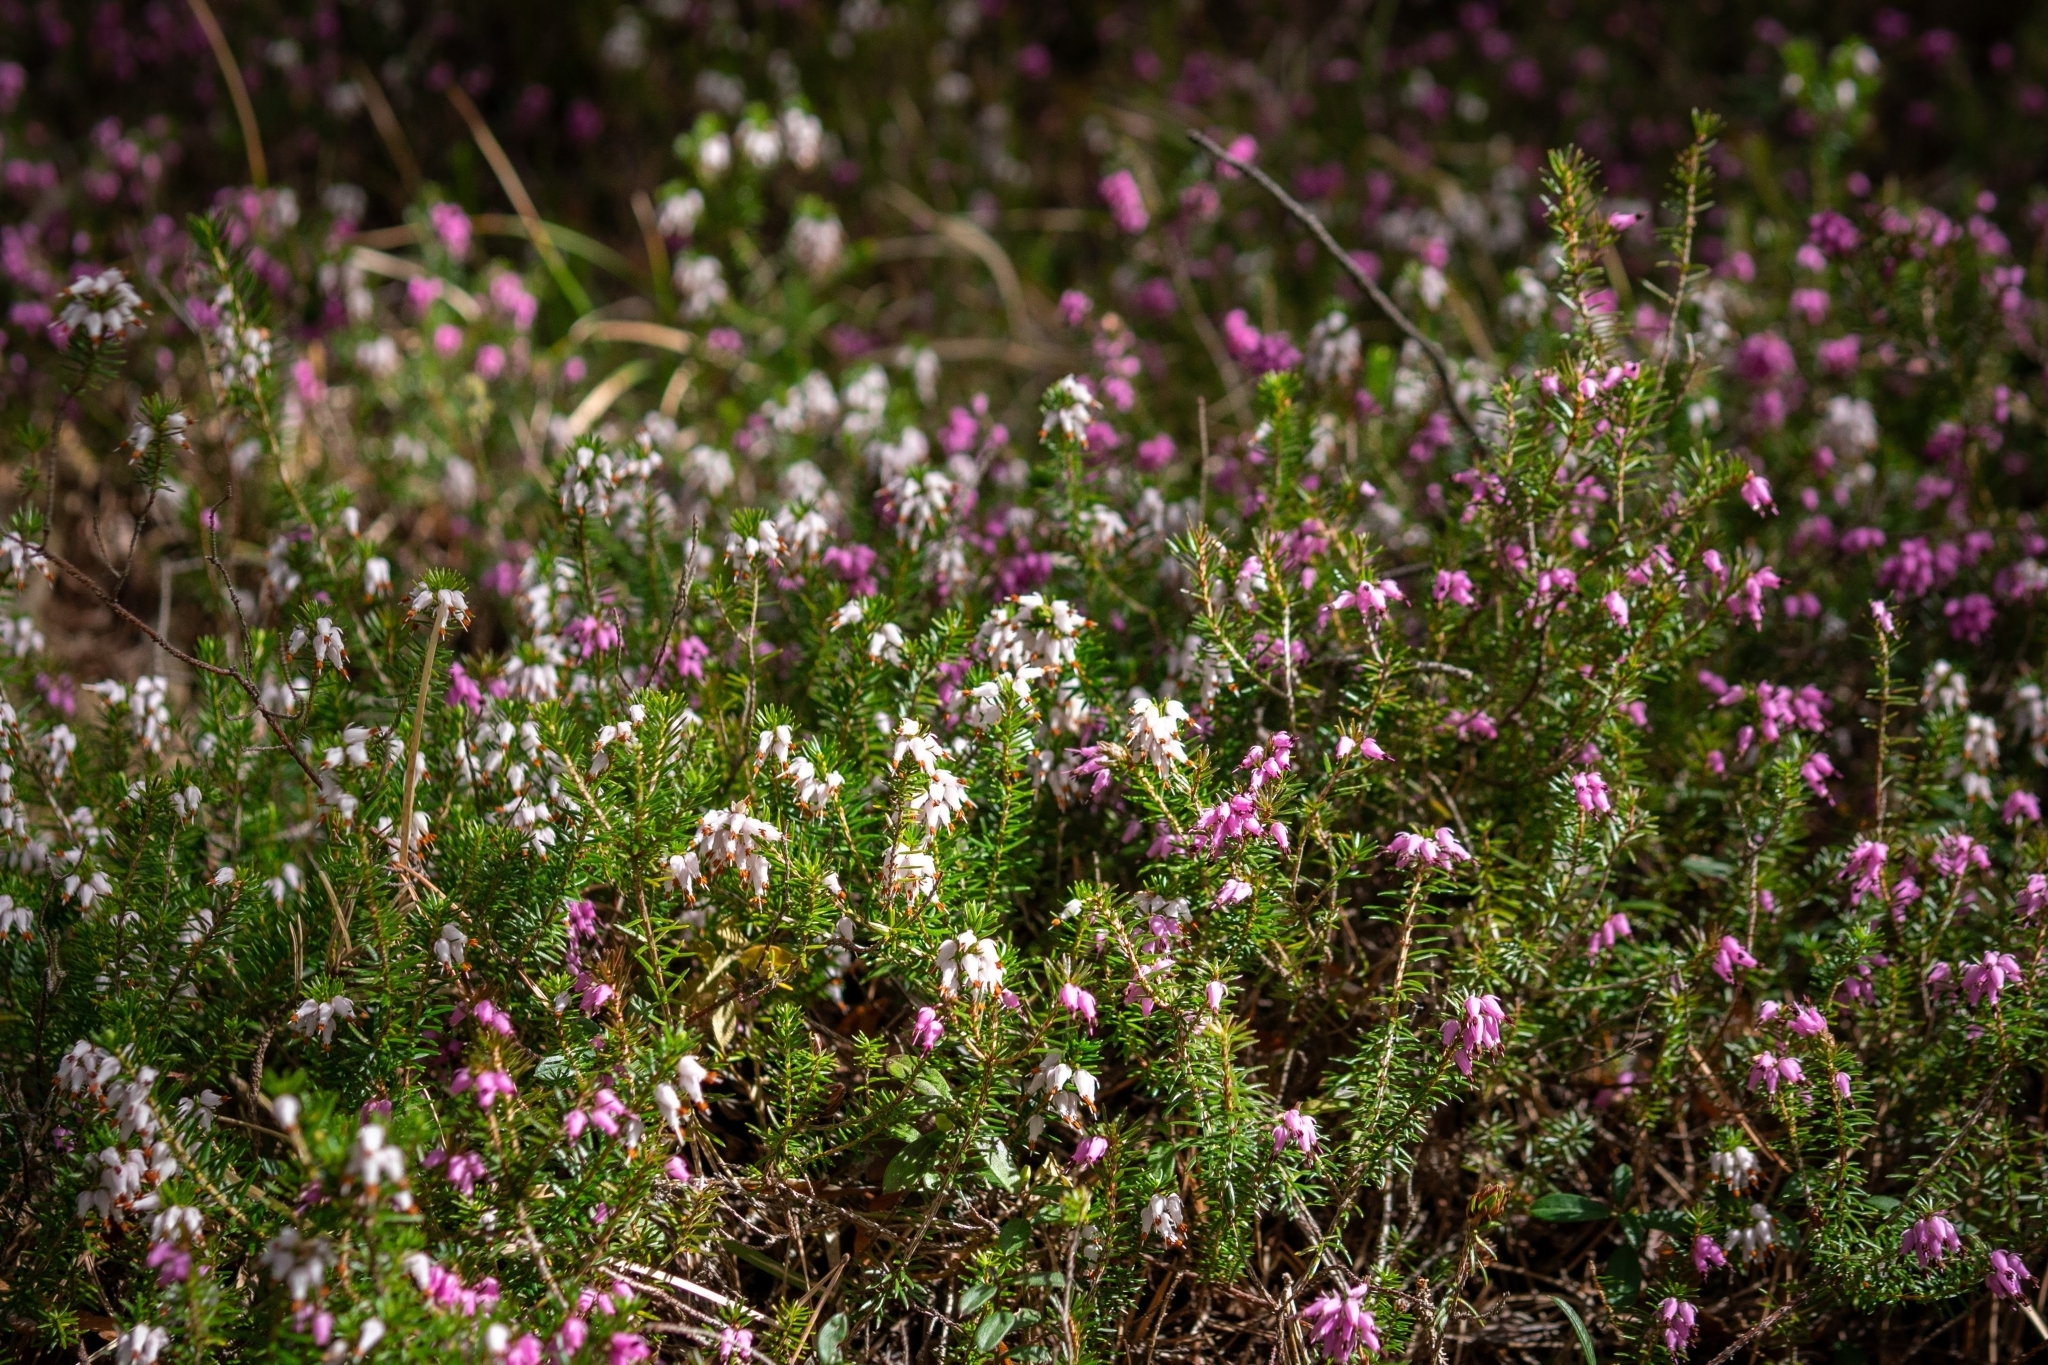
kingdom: Plantae
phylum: Tracheophyta
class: Magnoliopsida
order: Ericales
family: Ericaceae
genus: Erica
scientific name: Erica carnea
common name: Winter heath
